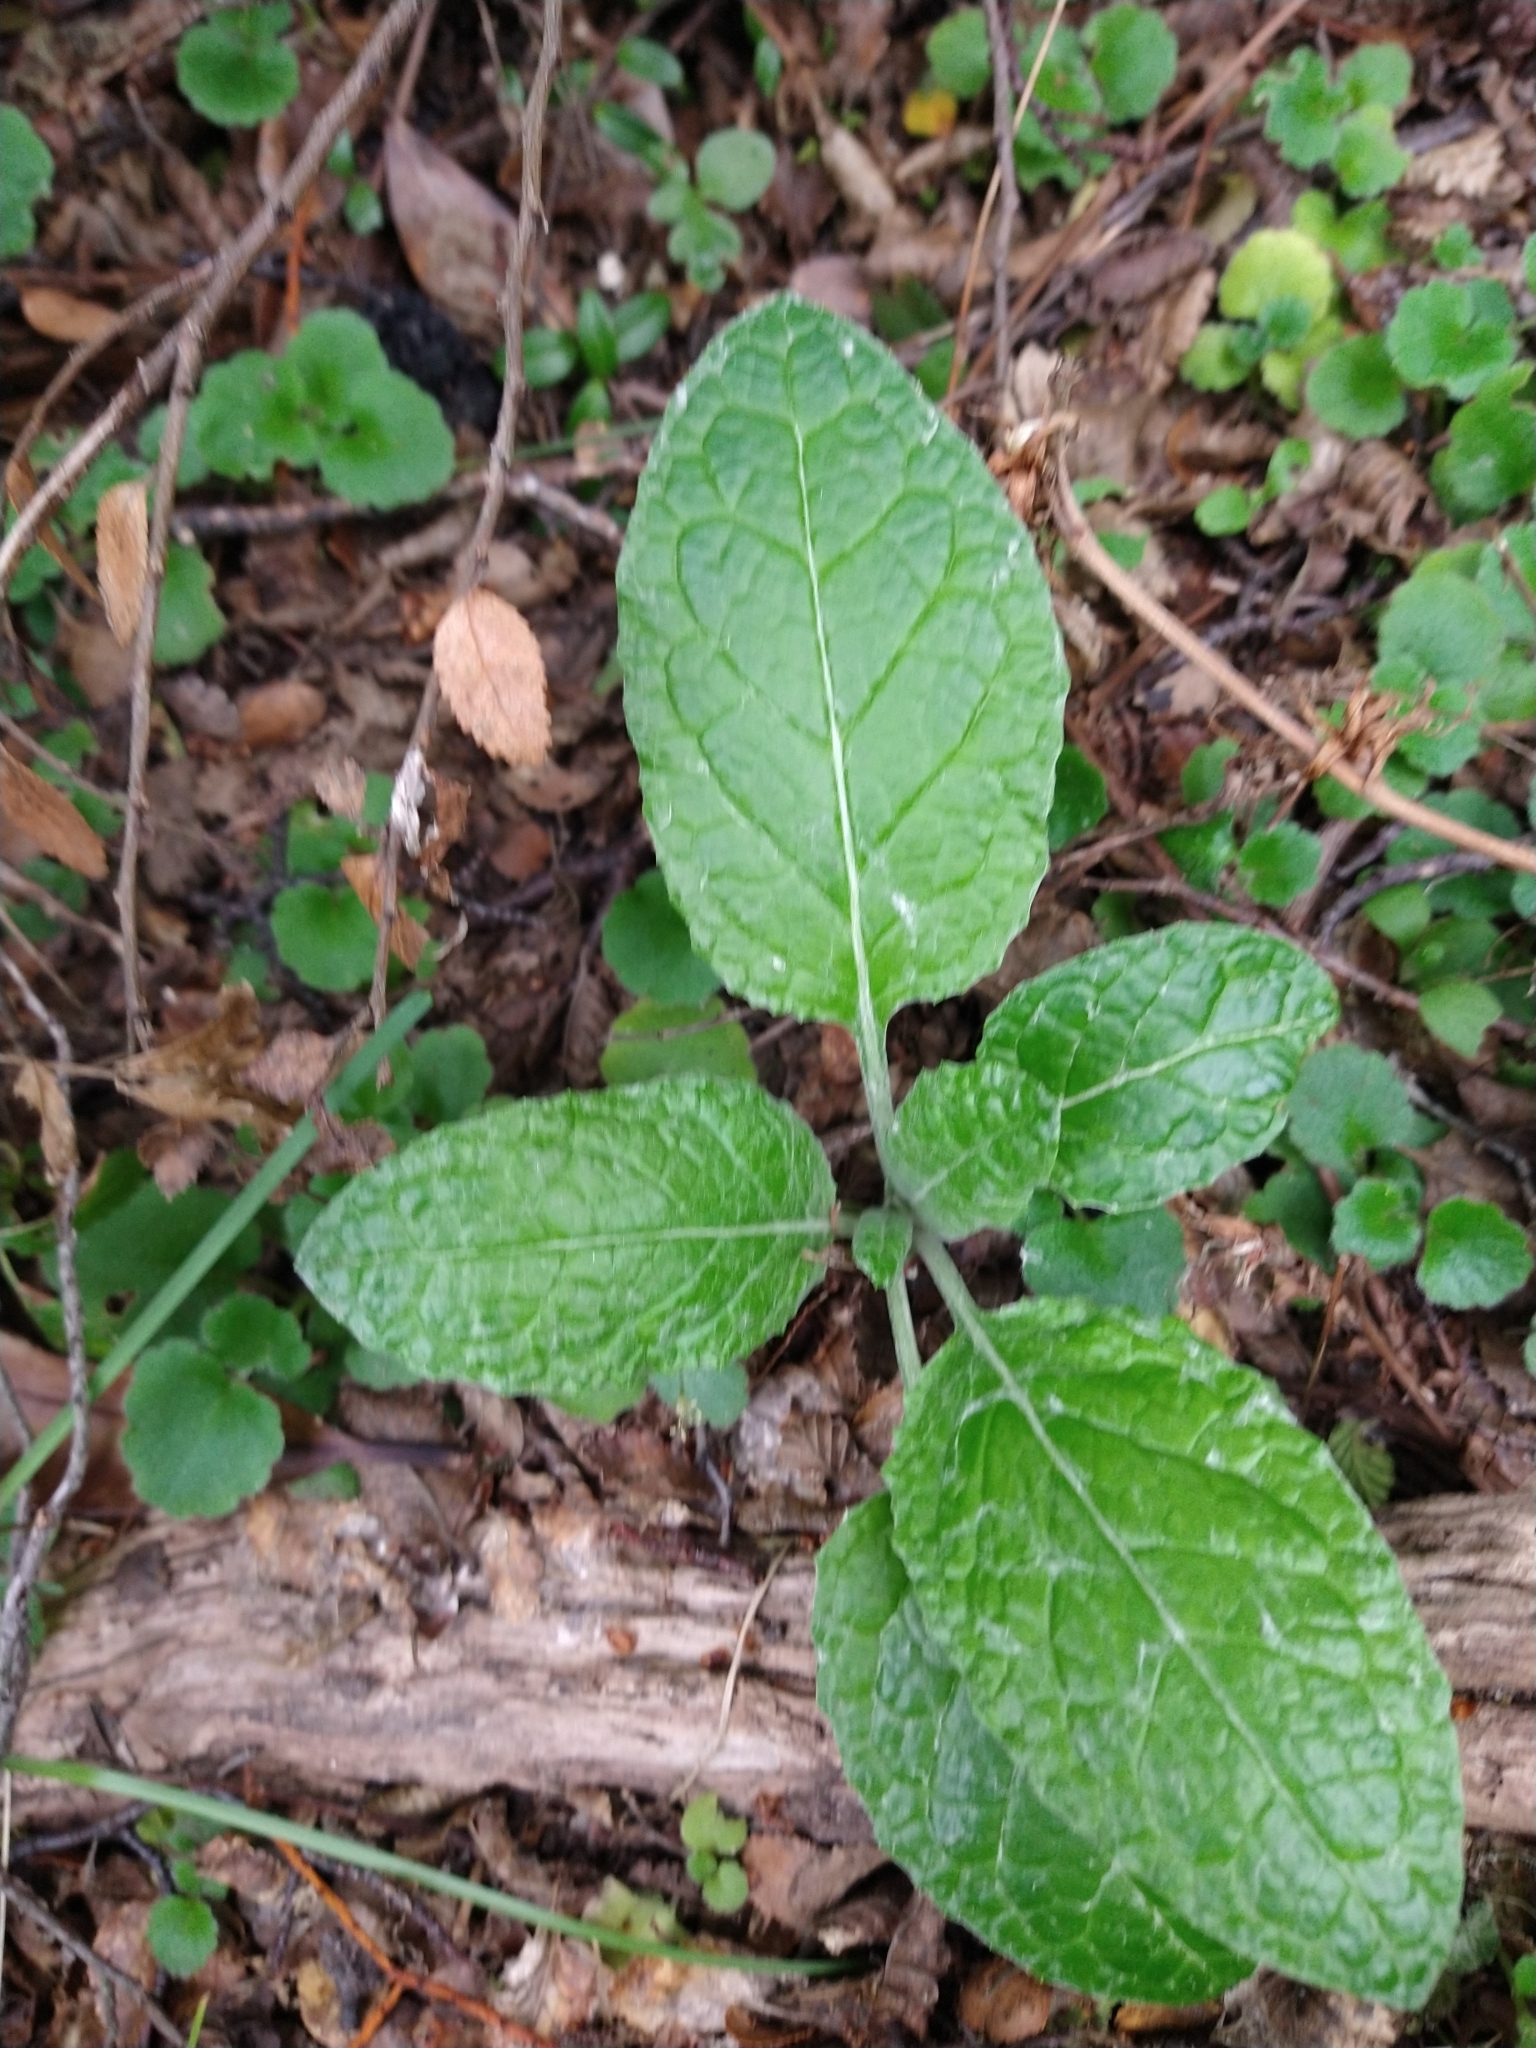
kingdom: Plantae
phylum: Tracheophyta
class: Magnoliopsida
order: Asterales
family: Asteraceae
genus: Adenocaulon
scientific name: Adenocaulon chilense
